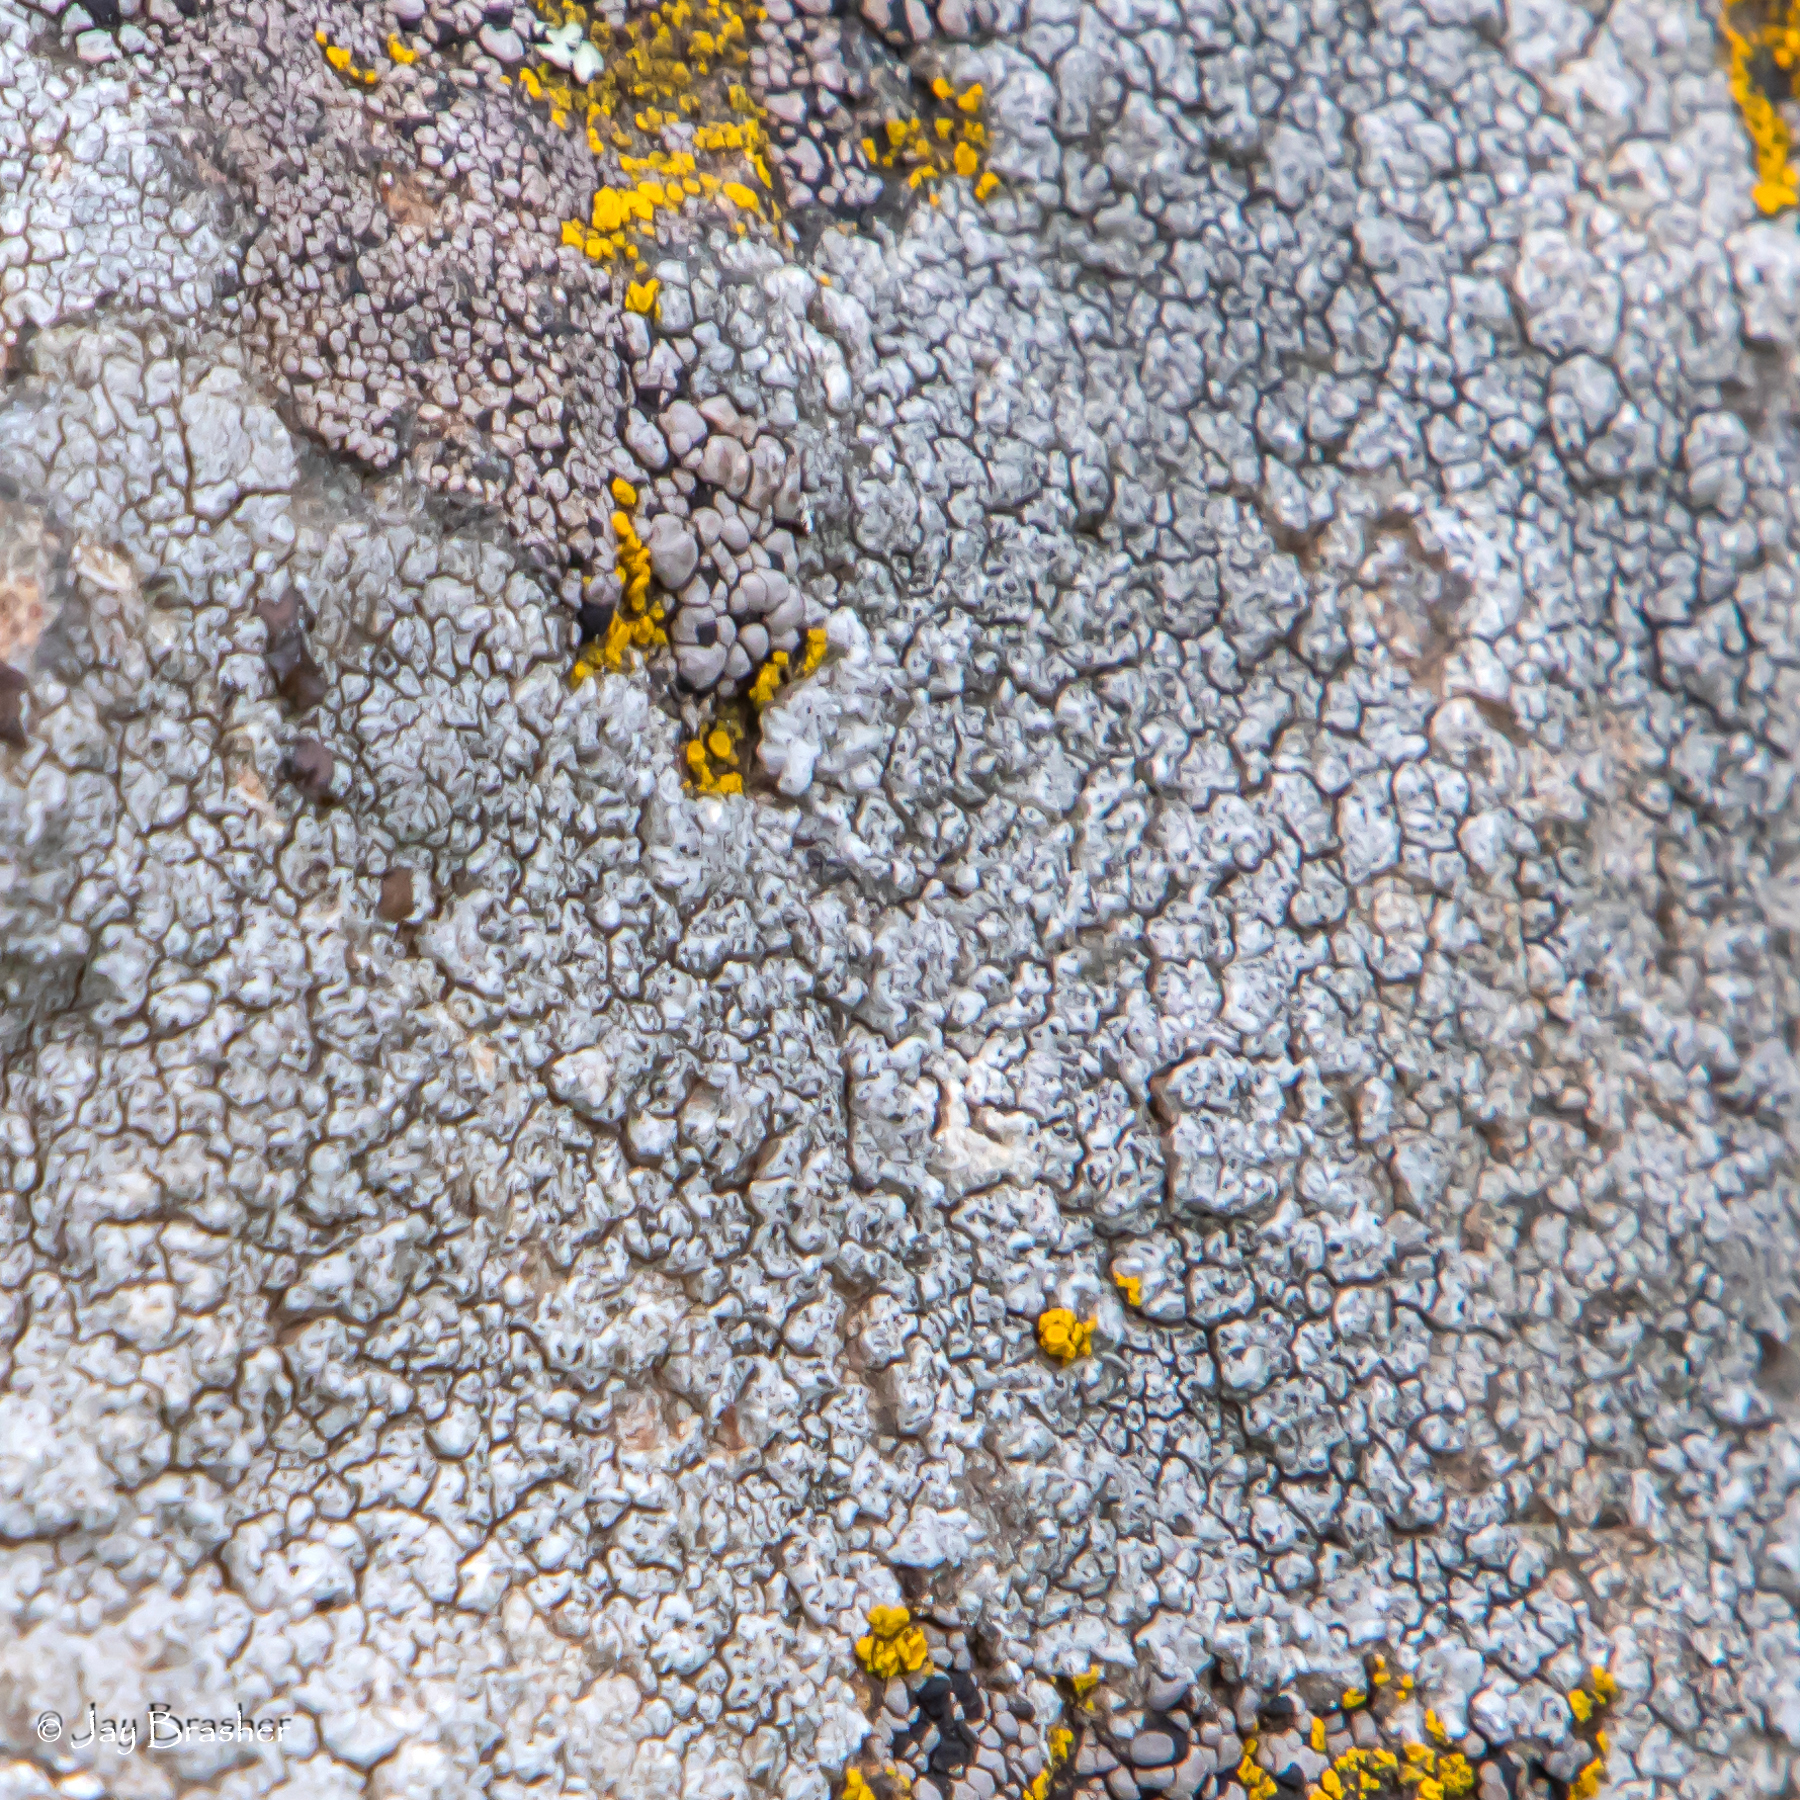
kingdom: Fungi
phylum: Ascomycota
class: Lecanoromycetes
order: Pertusariales
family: Megasporaceae
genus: Aspicilia
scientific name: Aspicilia cinerea
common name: Cinder lichen
